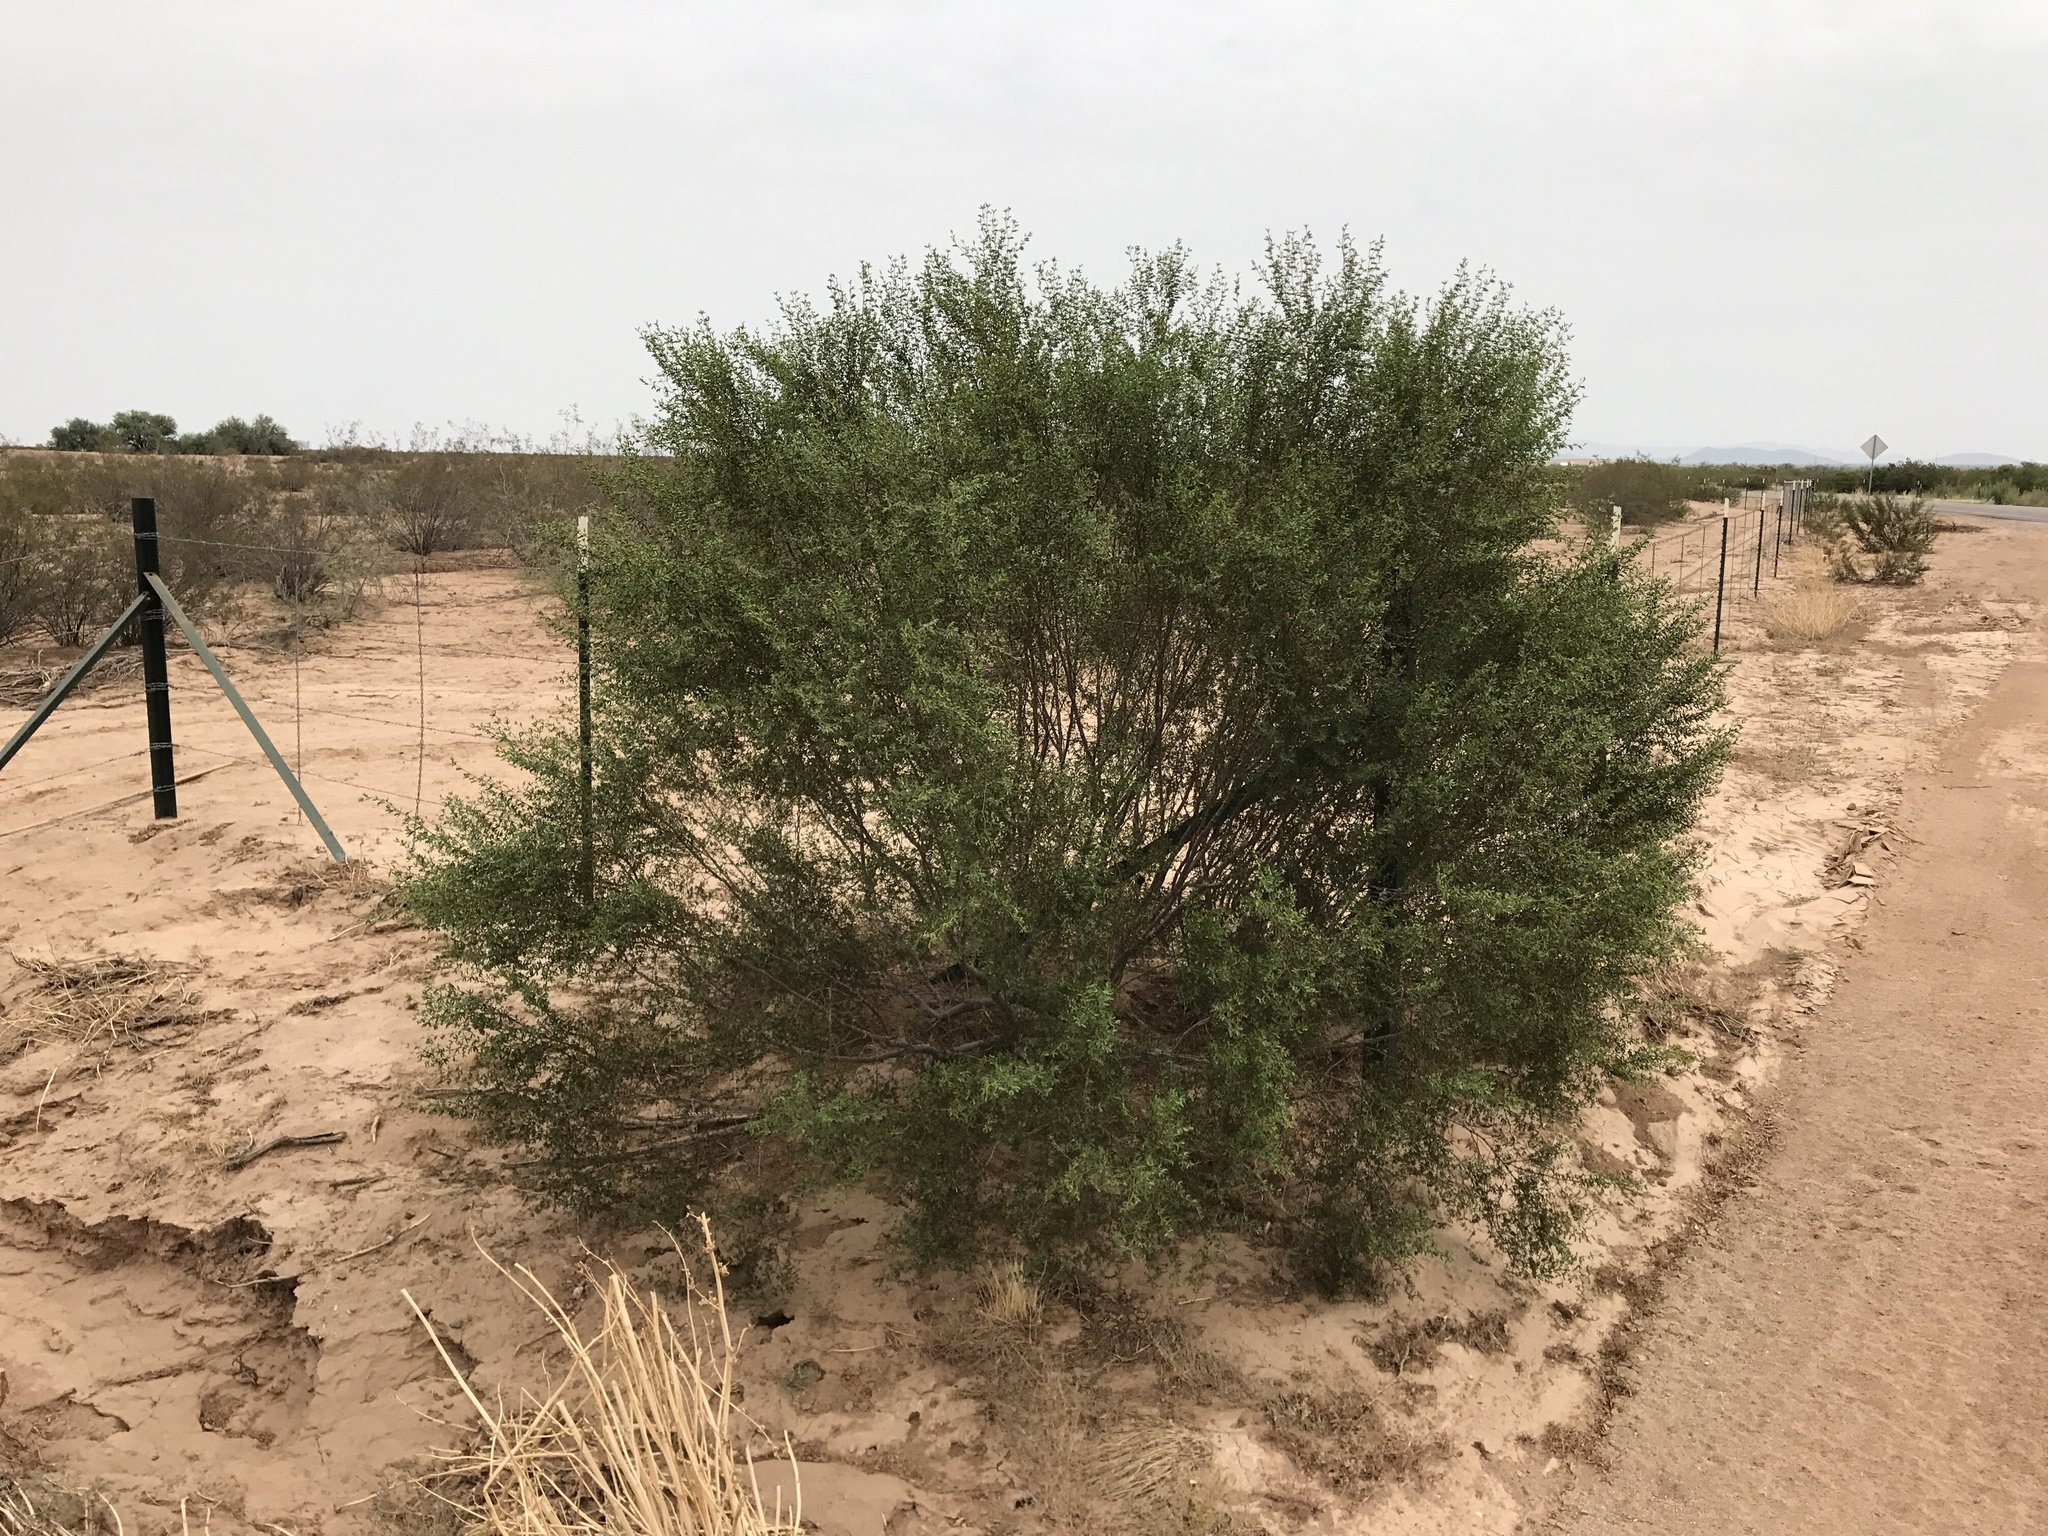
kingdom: Plantae
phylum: Tracheophyta
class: Magnoliopsida
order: Zygophyllales
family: Zygophyllaceae
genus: Larrea
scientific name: Larrea tridentata
